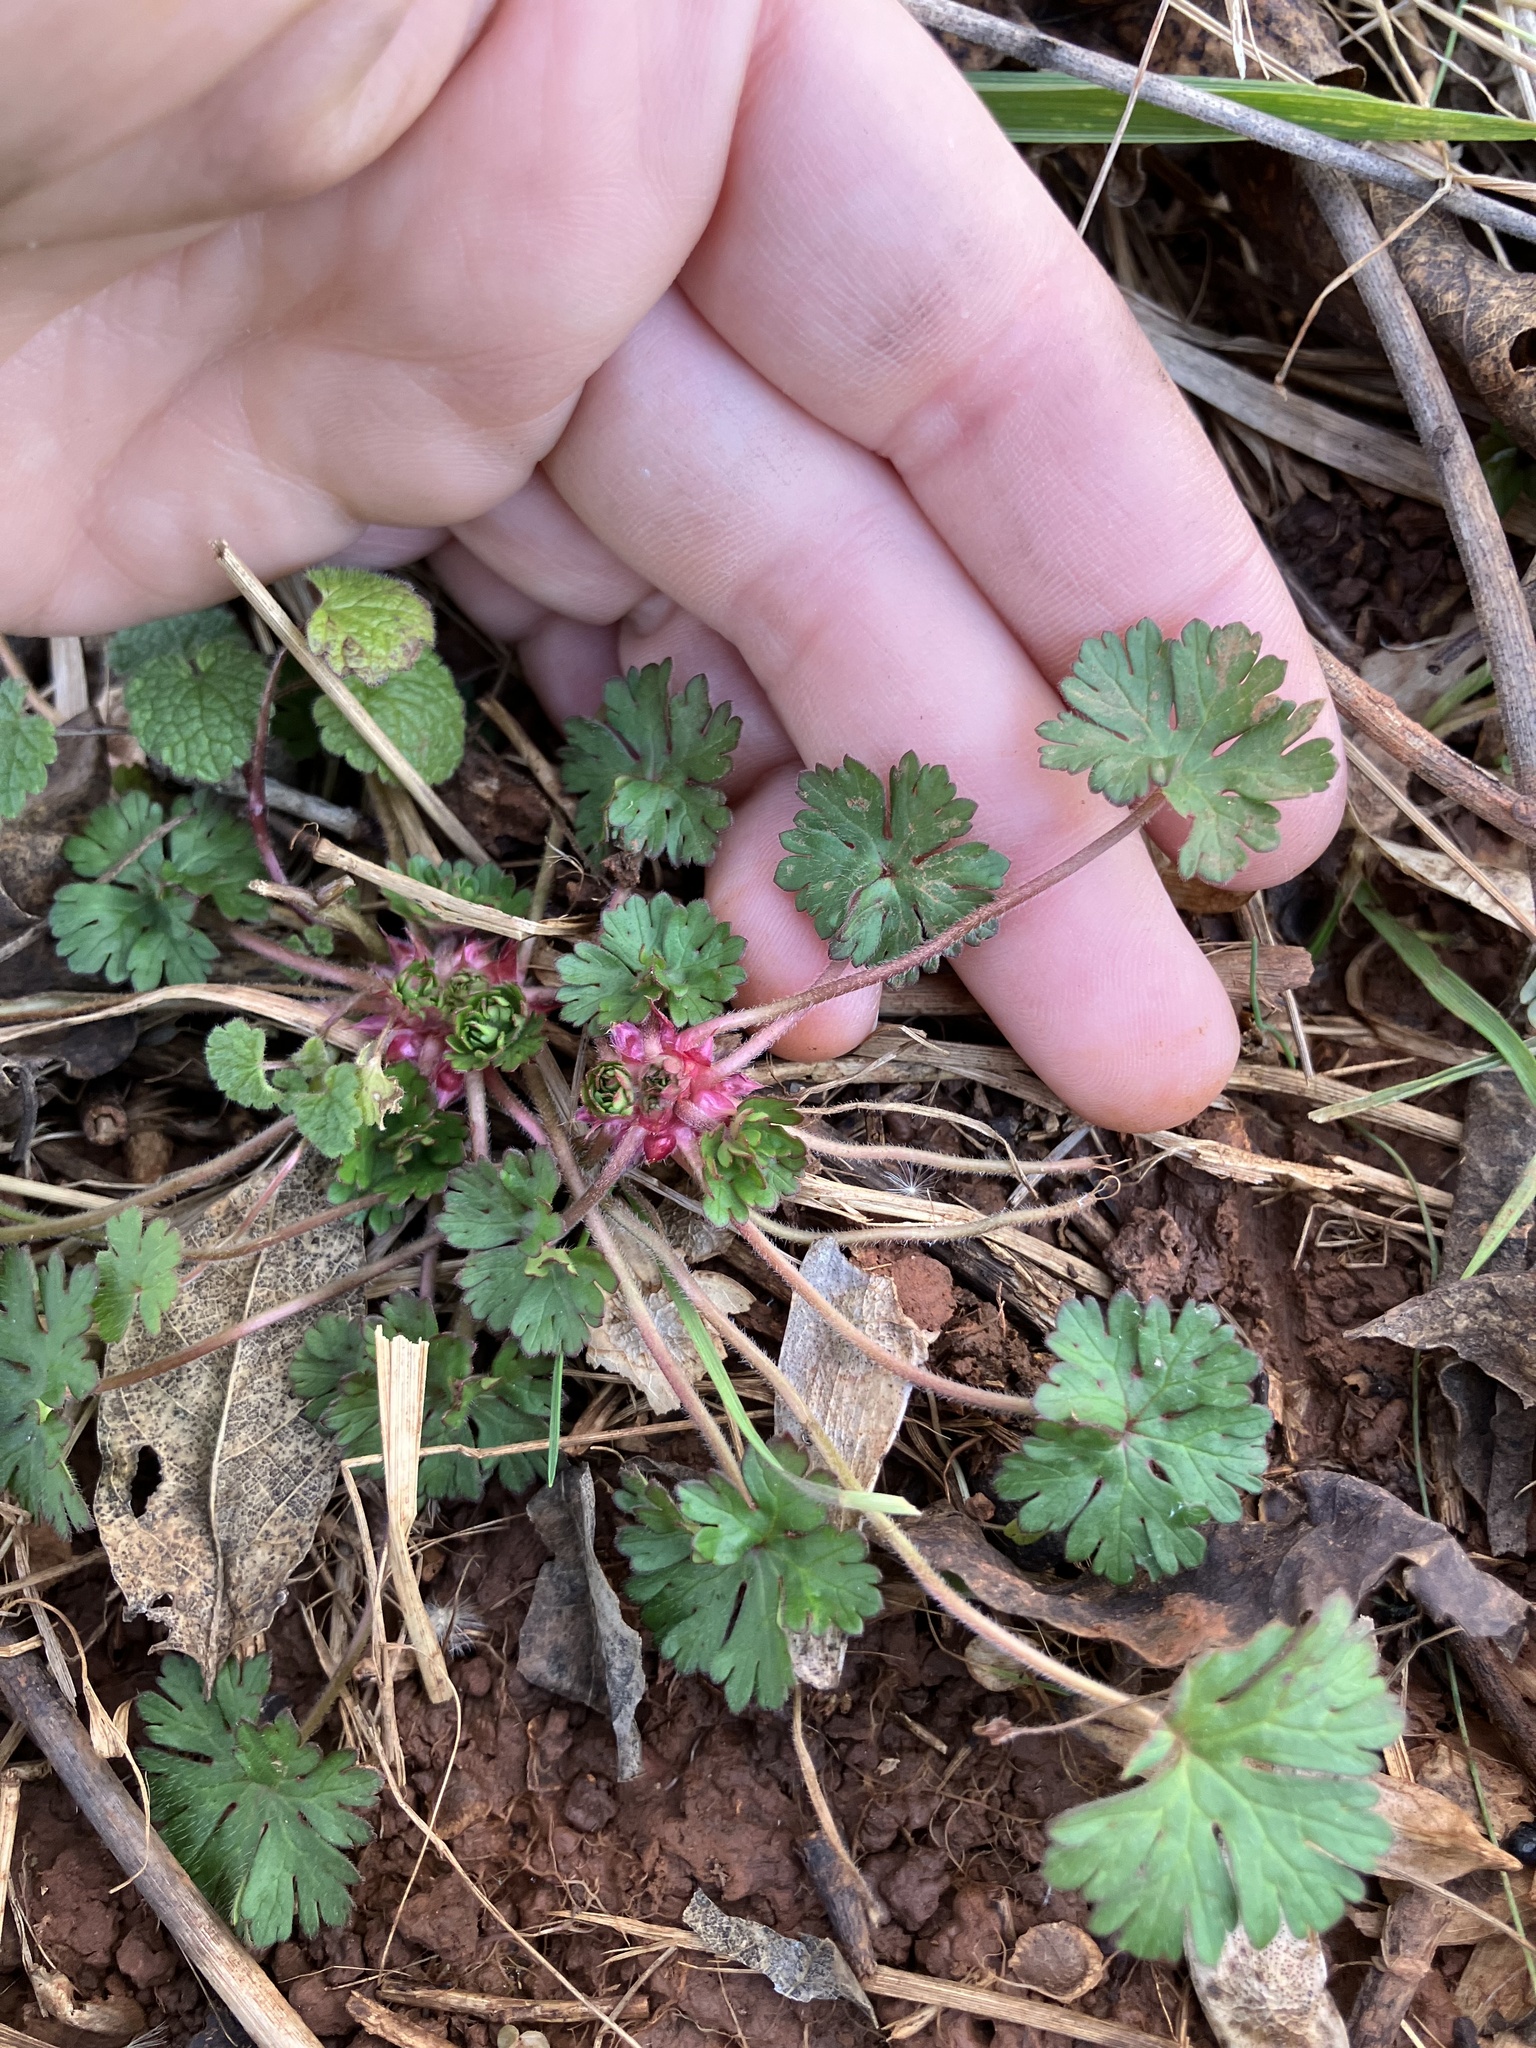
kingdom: Plantae
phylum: Tracheophyta
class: Magnoliopsida
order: Geraniales
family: Geraniaceae
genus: Geranium
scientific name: Geranium carolinianum
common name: Carolina crane's-bill
